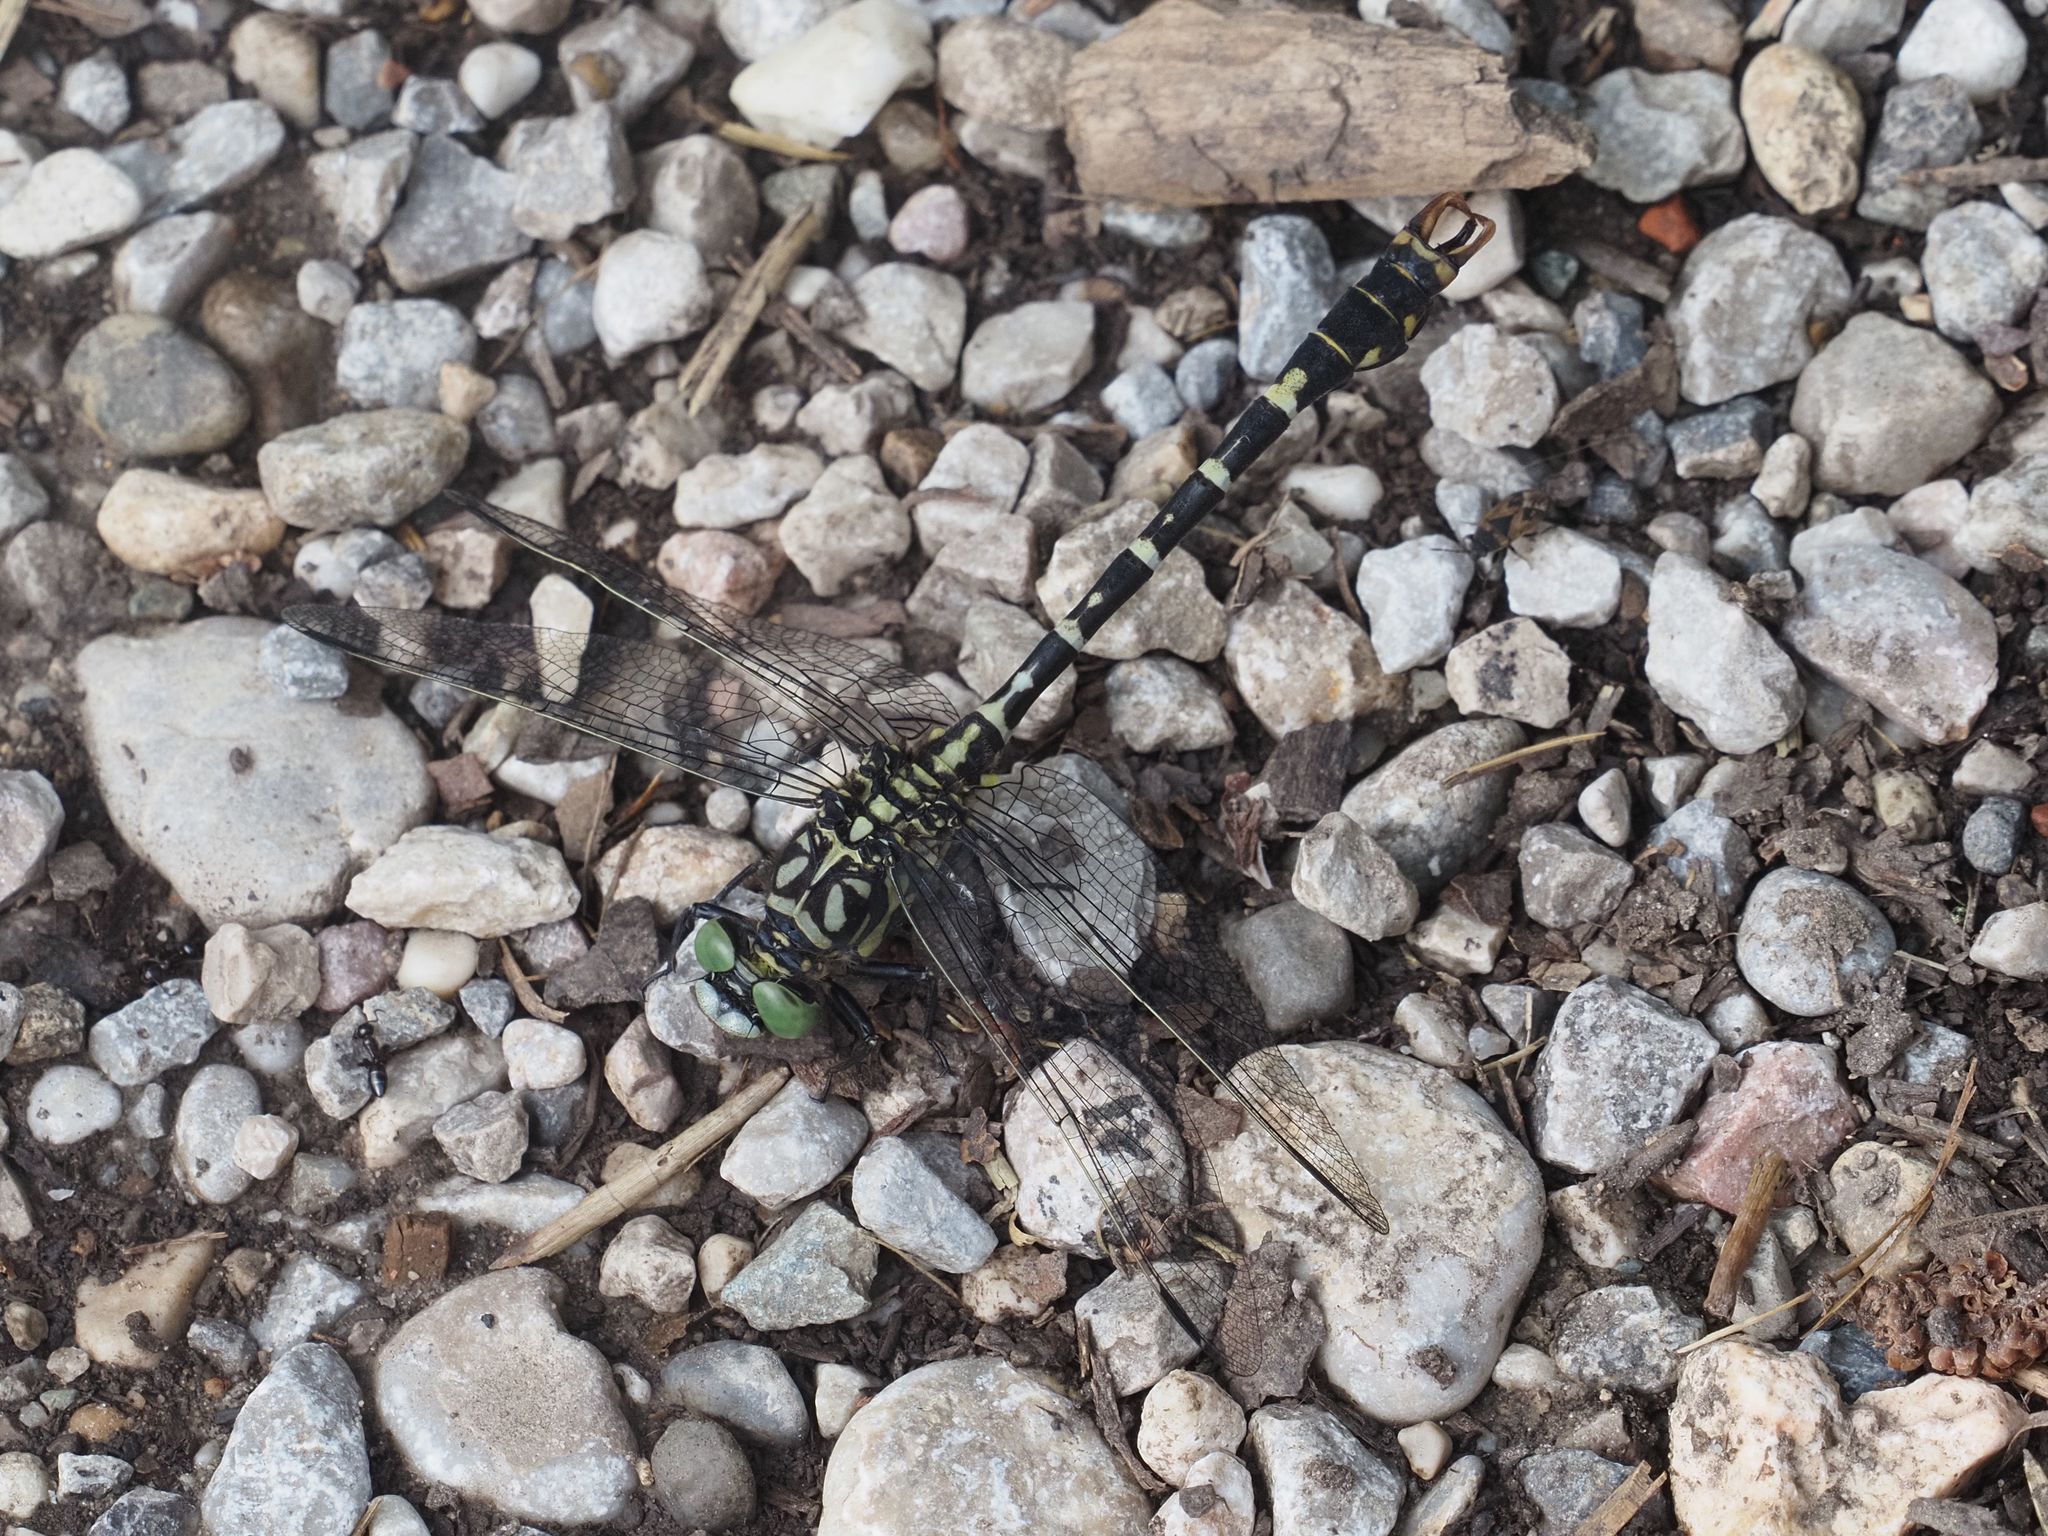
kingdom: Animalia
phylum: Arthropoda
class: Insecta
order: Odonata
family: Gomphidae
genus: Onychogomphus
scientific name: Onychogomphus forcipatus
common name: Small pincertail
